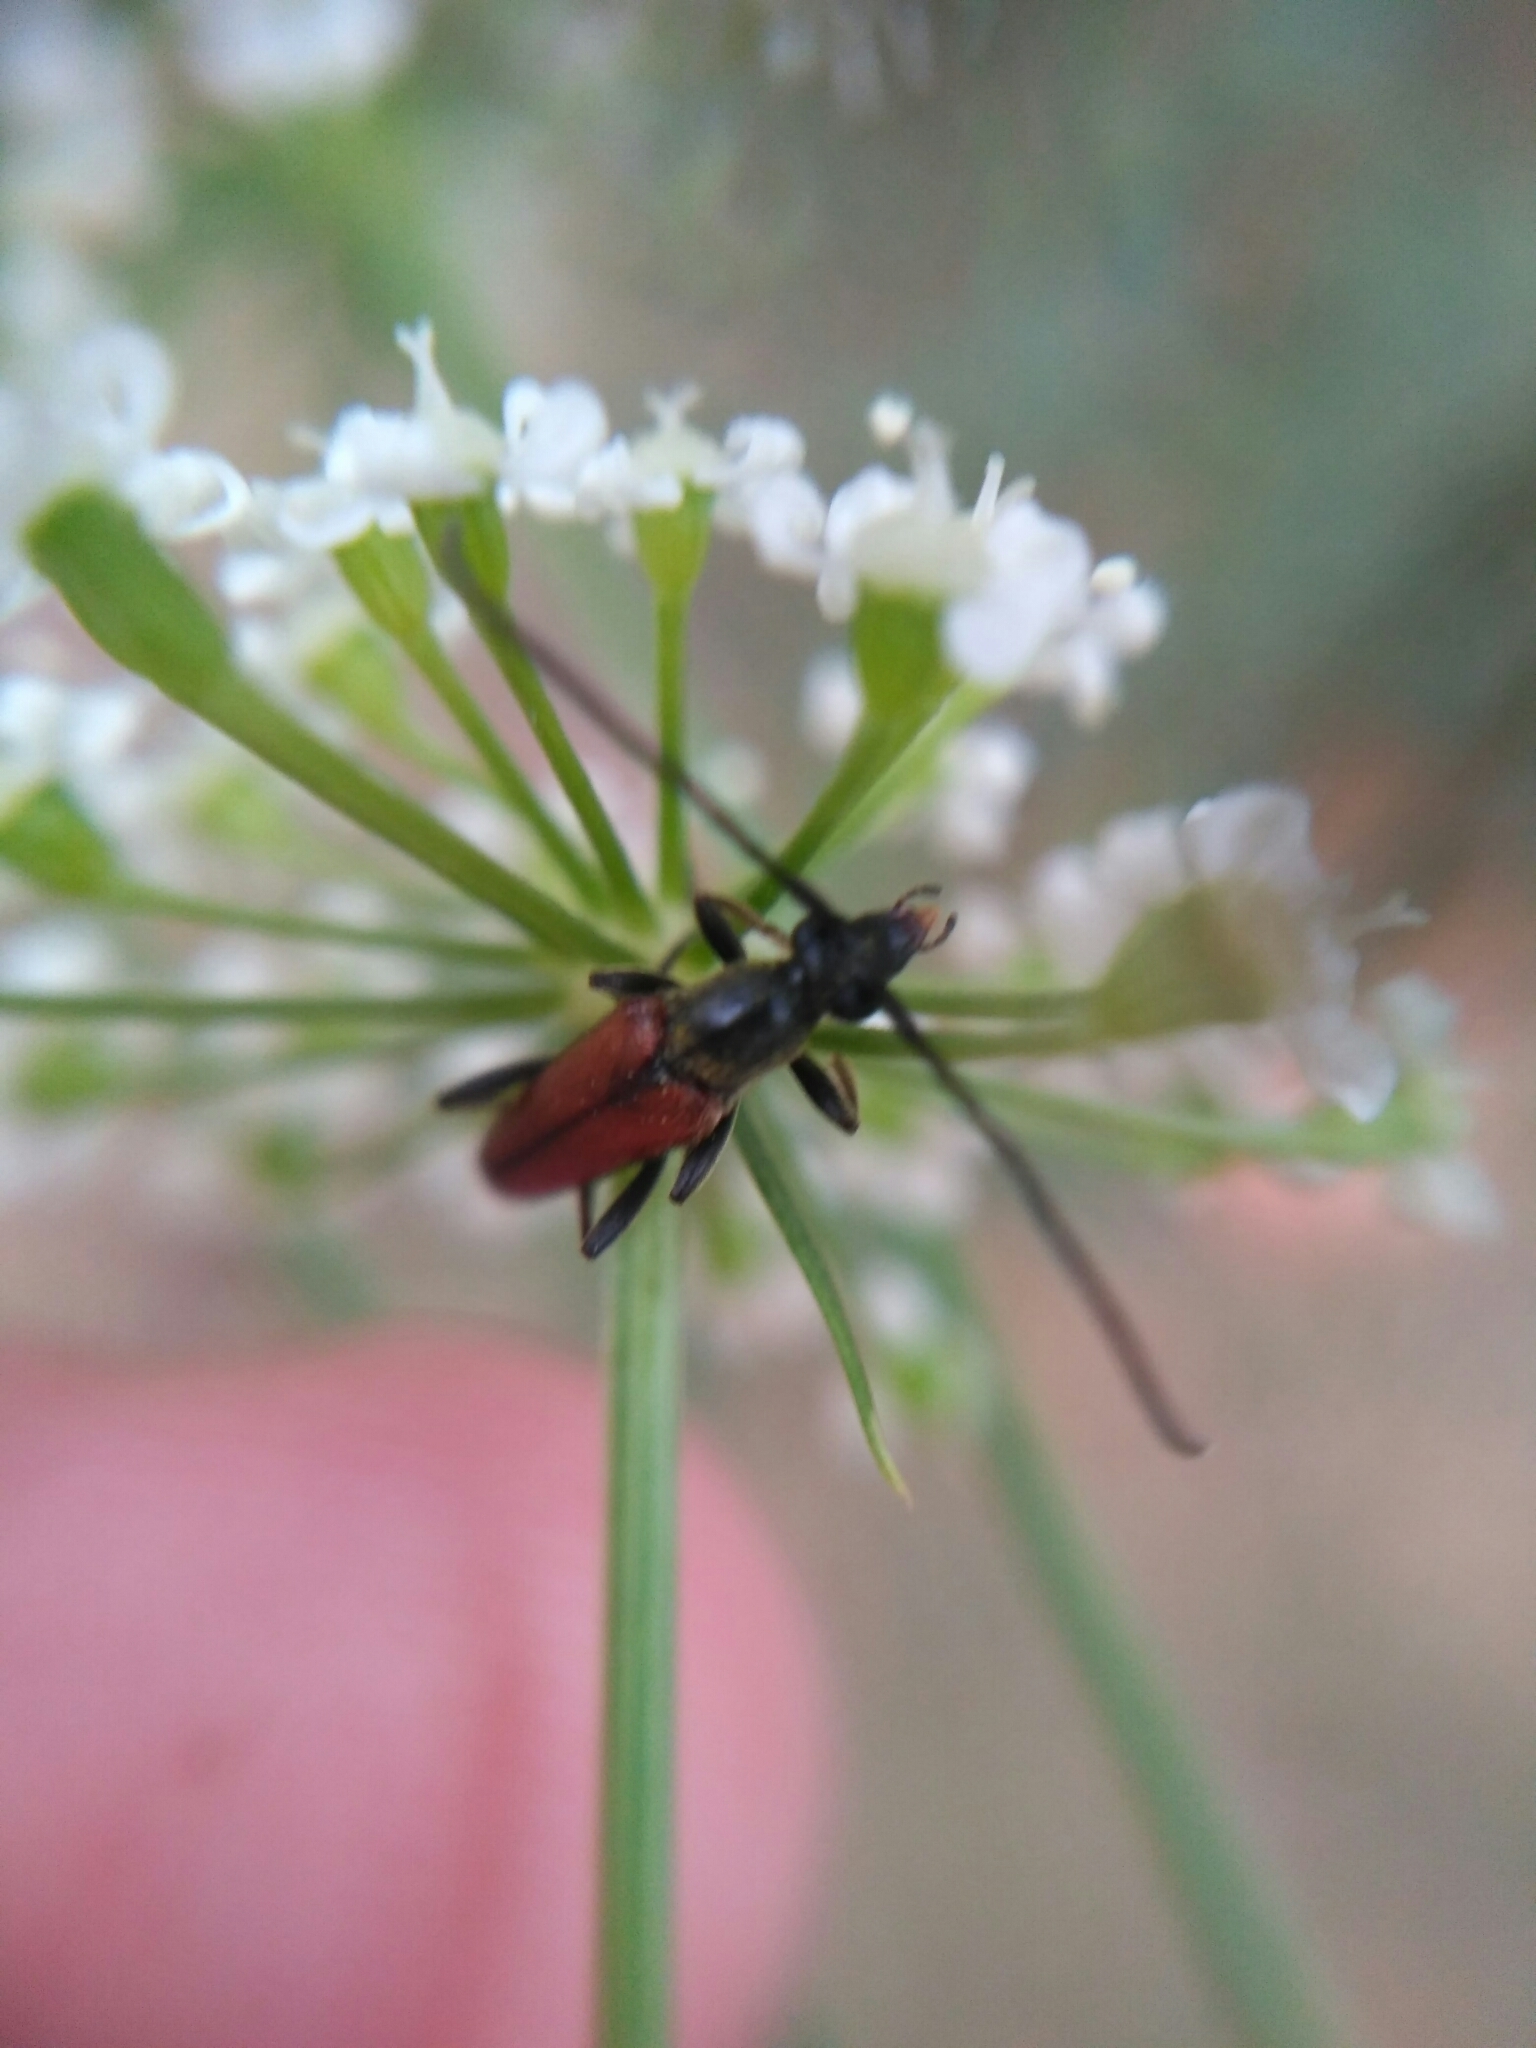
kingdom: Animalia
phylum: Arthropoda
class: Insecta
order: Coleoptera
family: Cerambycidae
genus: Stenurella
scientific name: Stenurella bifasciata
